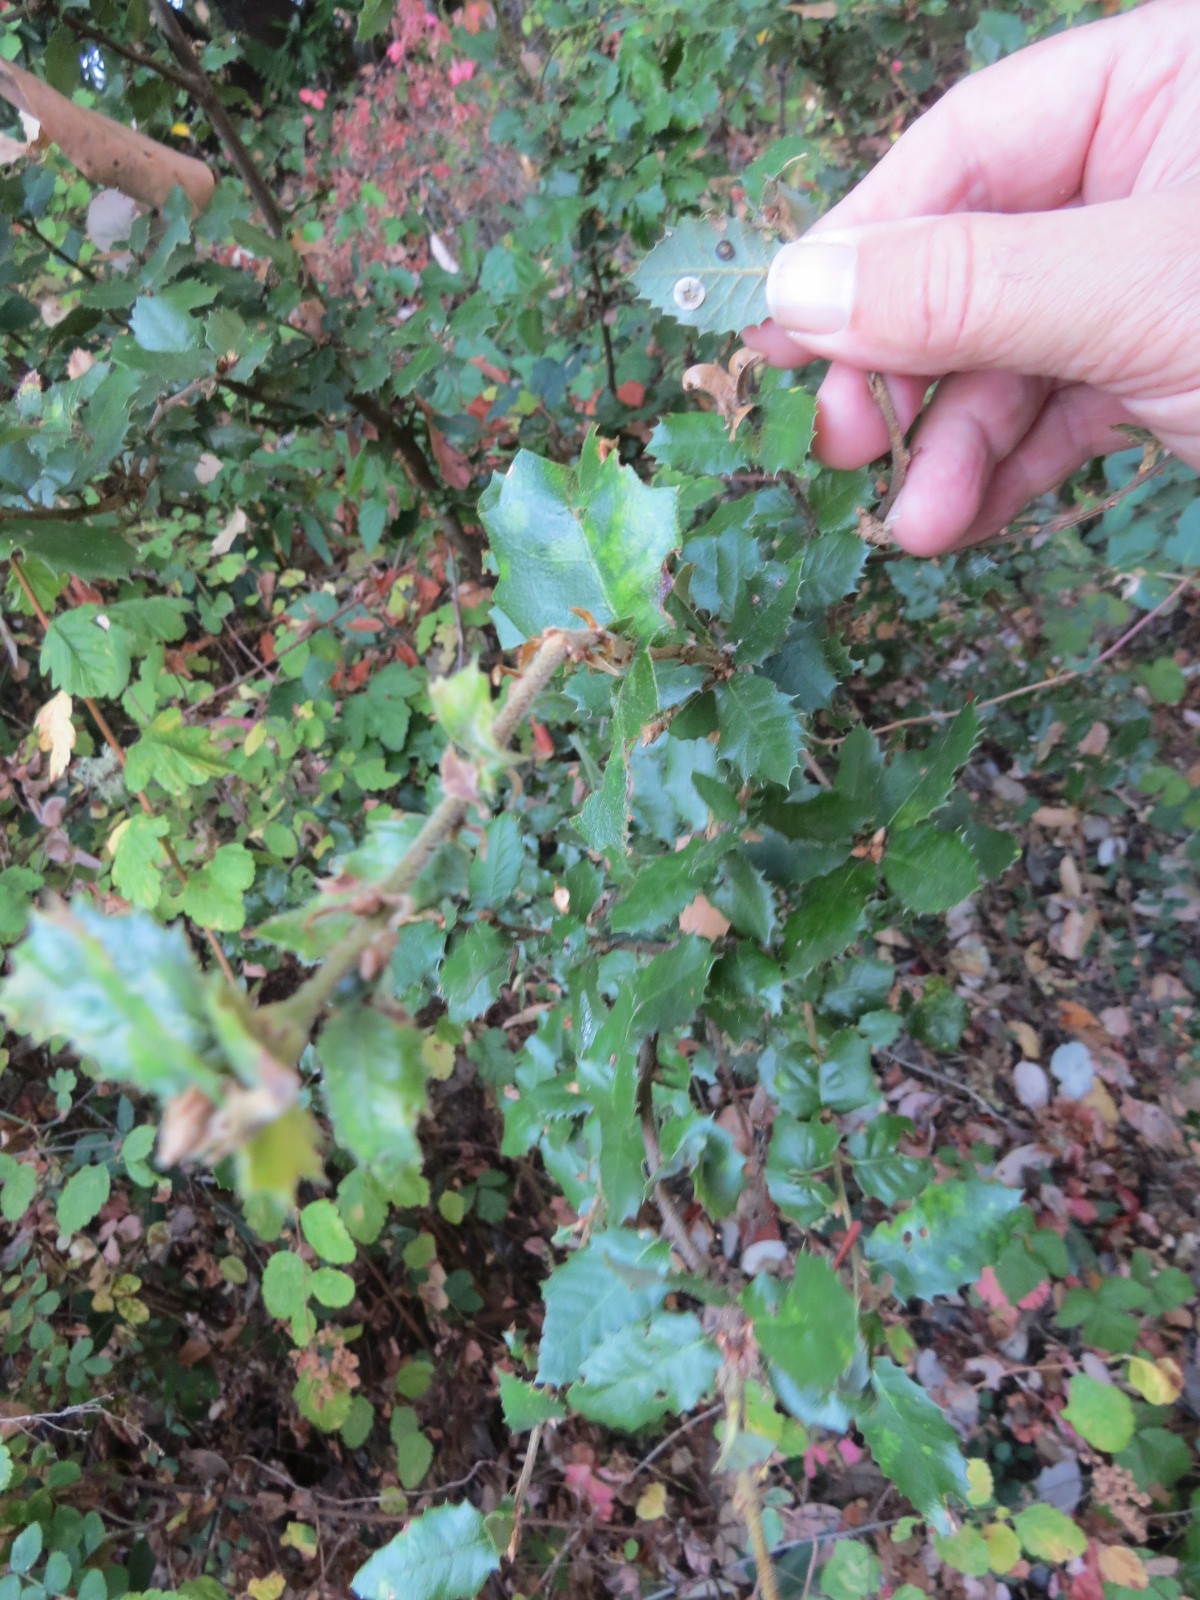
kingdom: Animalia
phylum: Arthropoda
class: Insecta
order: Hymenoptera
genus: Paracraspis
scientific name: Paracraspis
